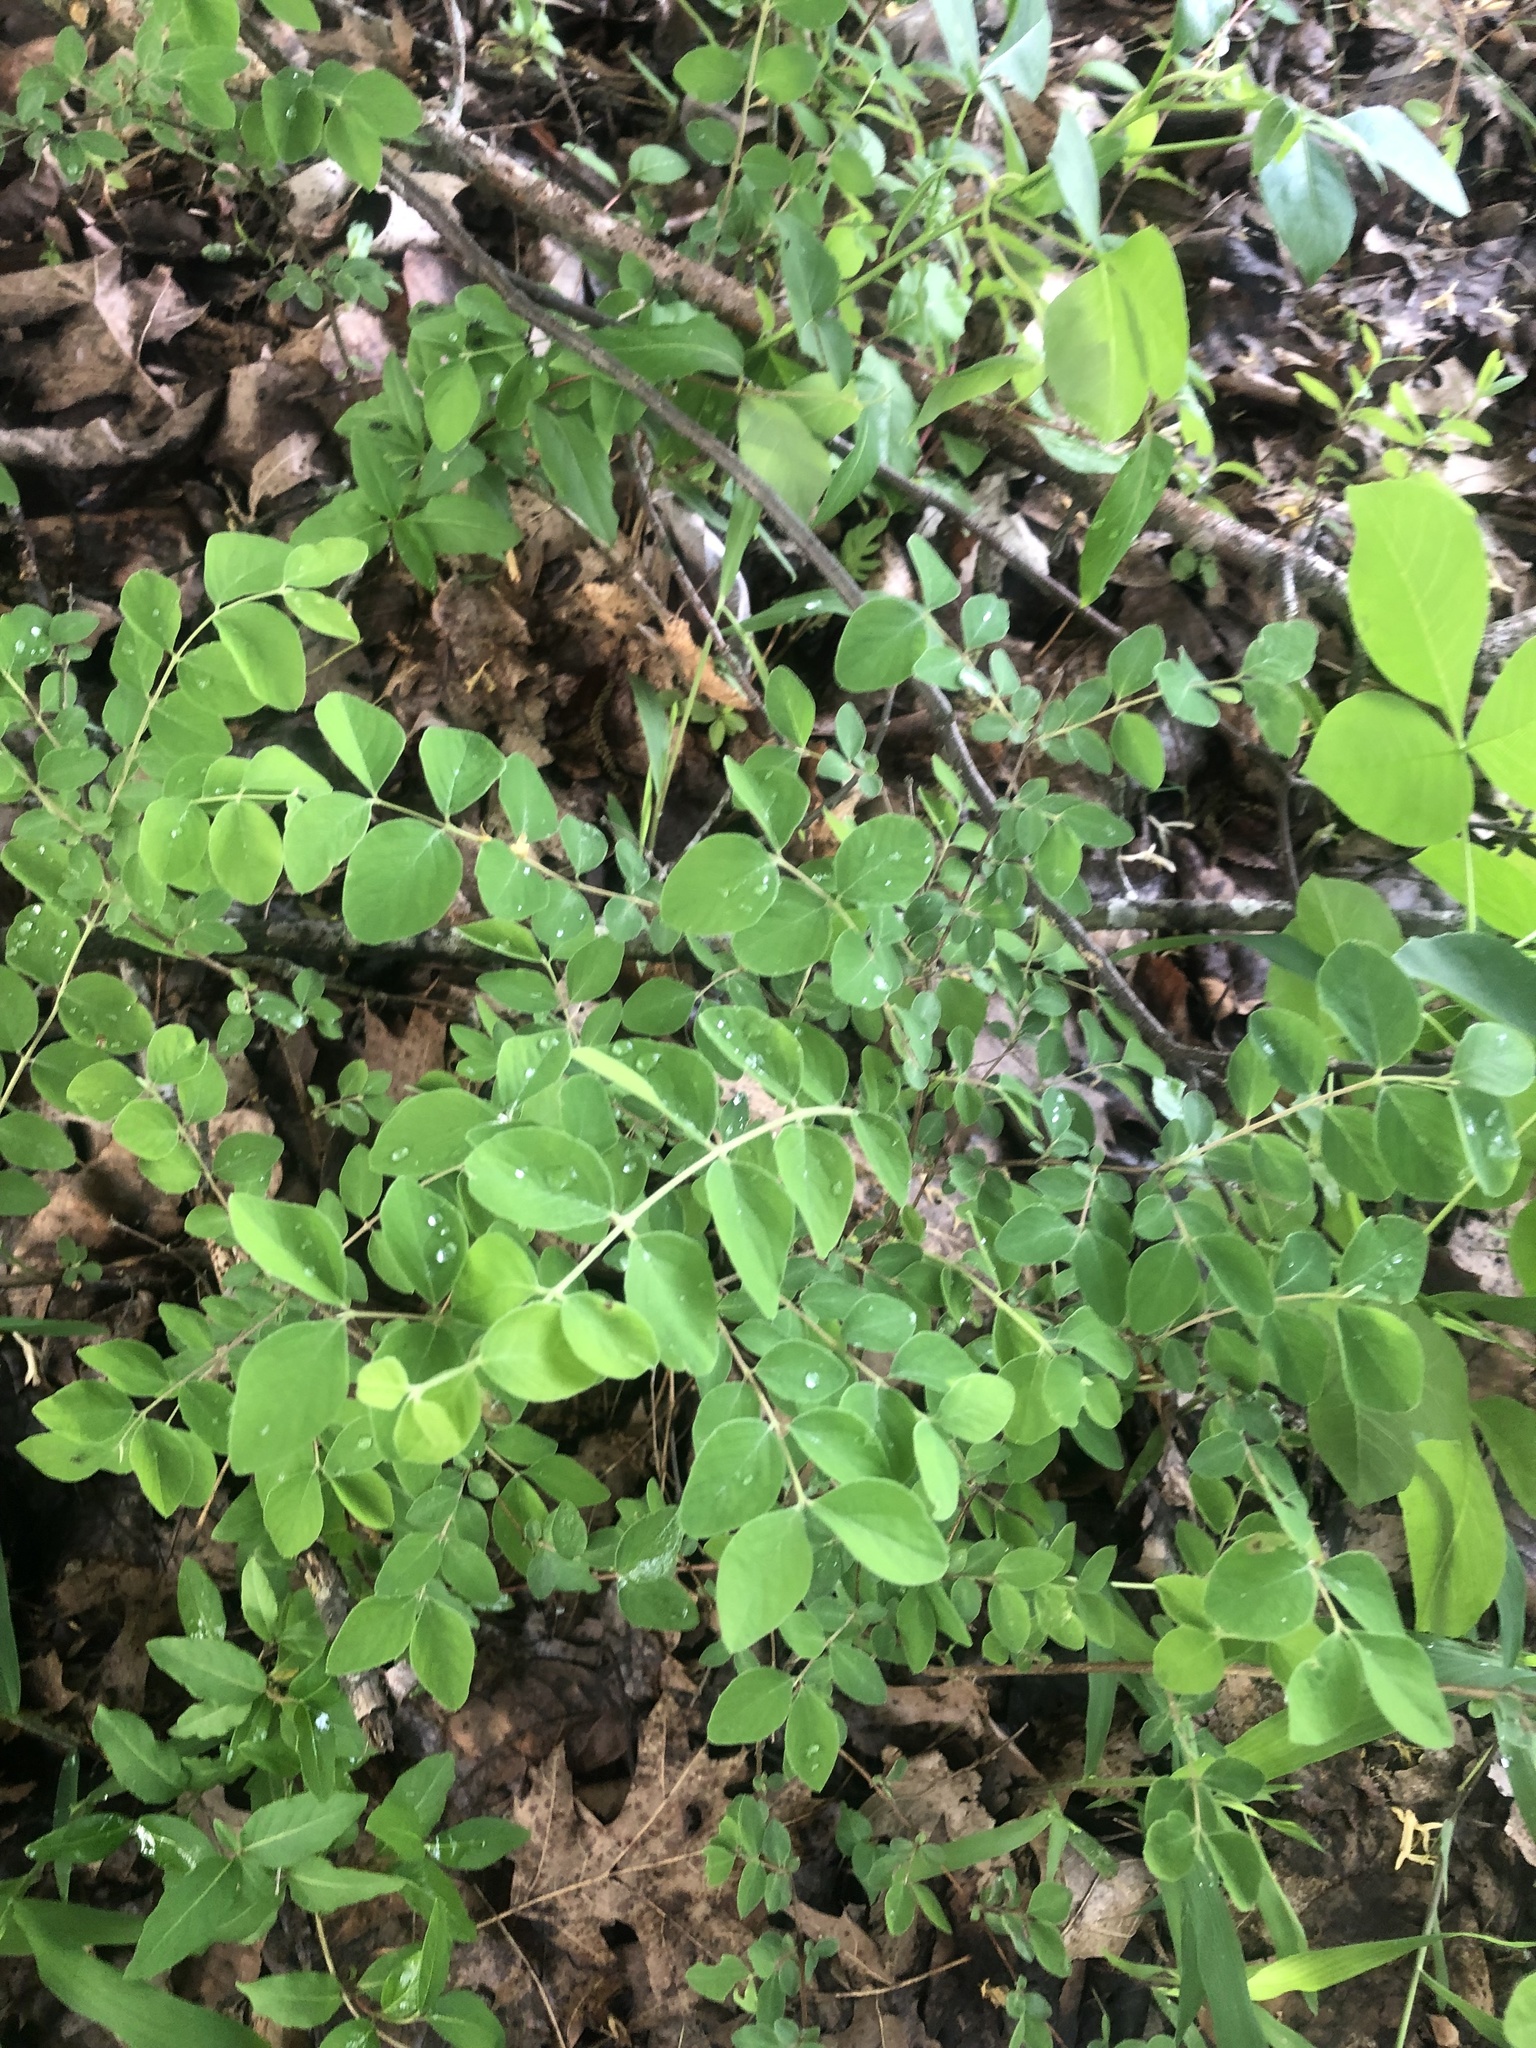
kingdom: Plantae
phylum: Tracheophyta
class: Magnoliopsida
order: Dipsacales
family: Caprifoliaceae
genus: Symphoricarpos
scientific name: Symphoricarpos orbiculatus
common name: Coralberry
